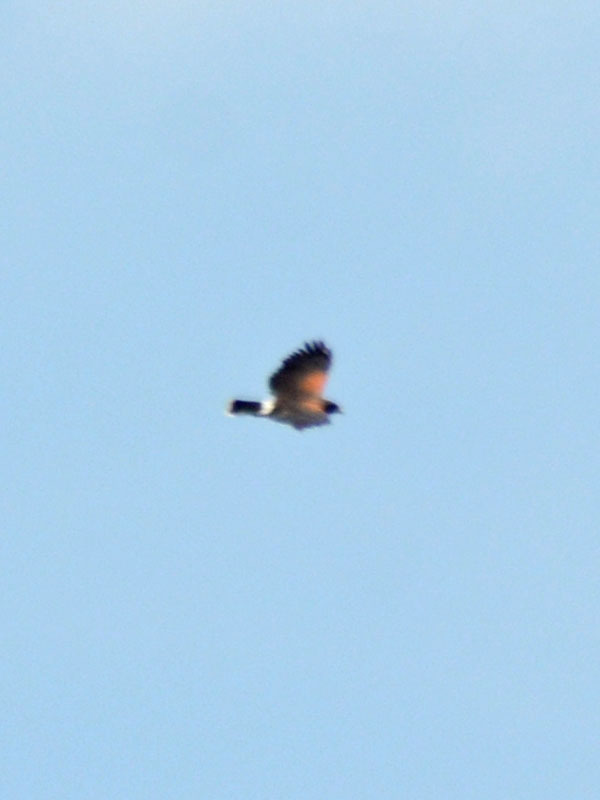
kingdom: Animalia
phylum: Chordata
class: Aves
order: Accipitriformes
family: Accipitridae
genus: Parabuteo
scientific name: Parabuteo unicinctus
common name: Harris's hawk
